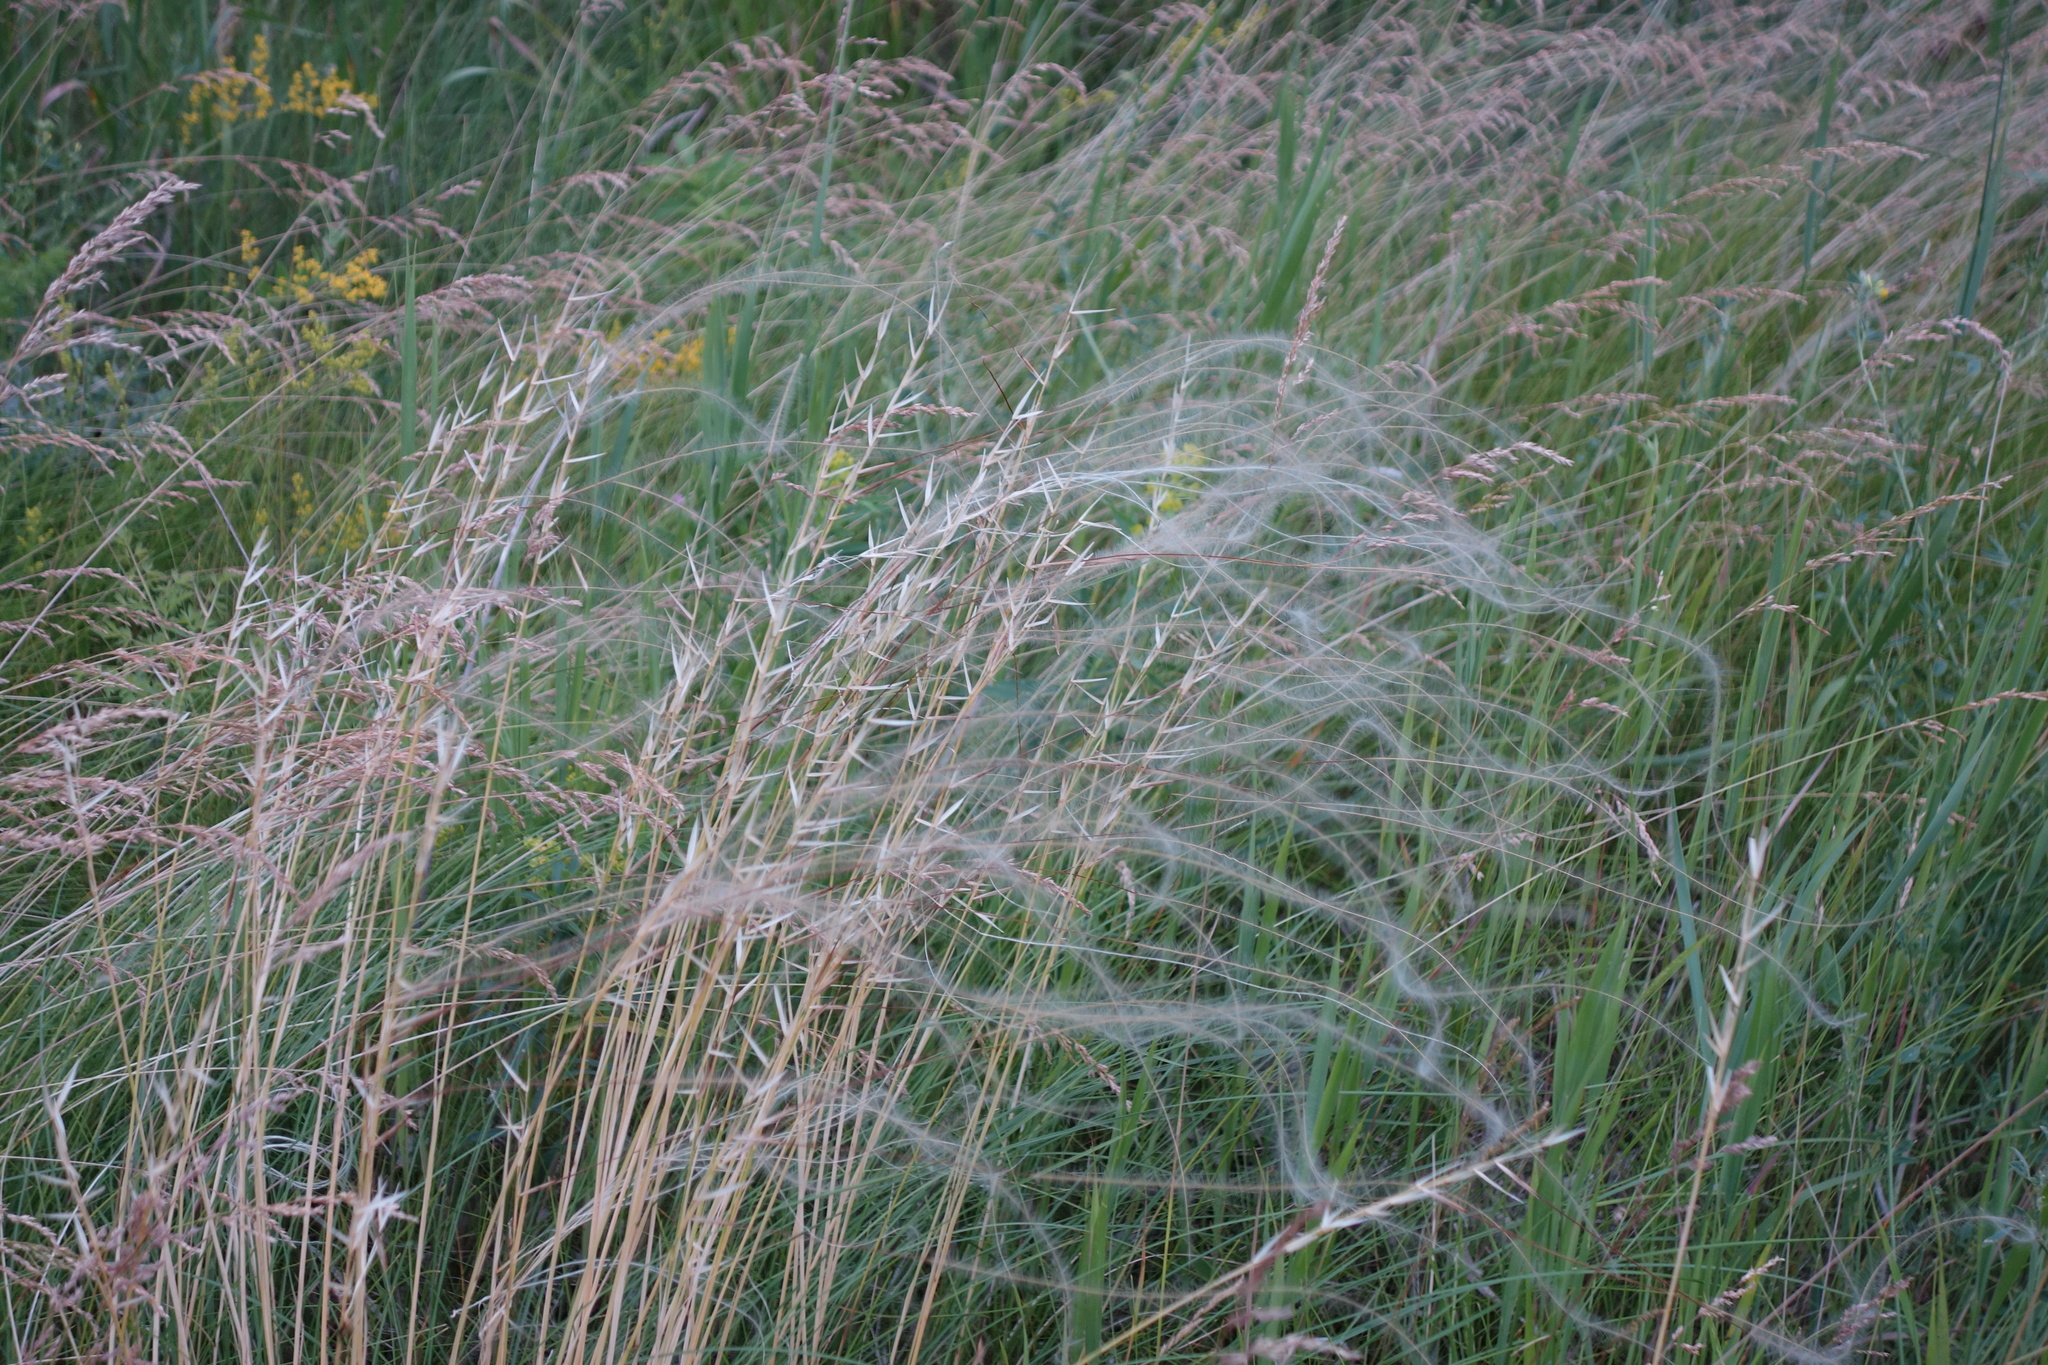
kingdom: Plantae
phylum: Tracheophyta
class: Liliopsida
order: Poales
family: Poaceae
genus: Stipa
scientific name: Stipa pennata
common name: European feather grass
